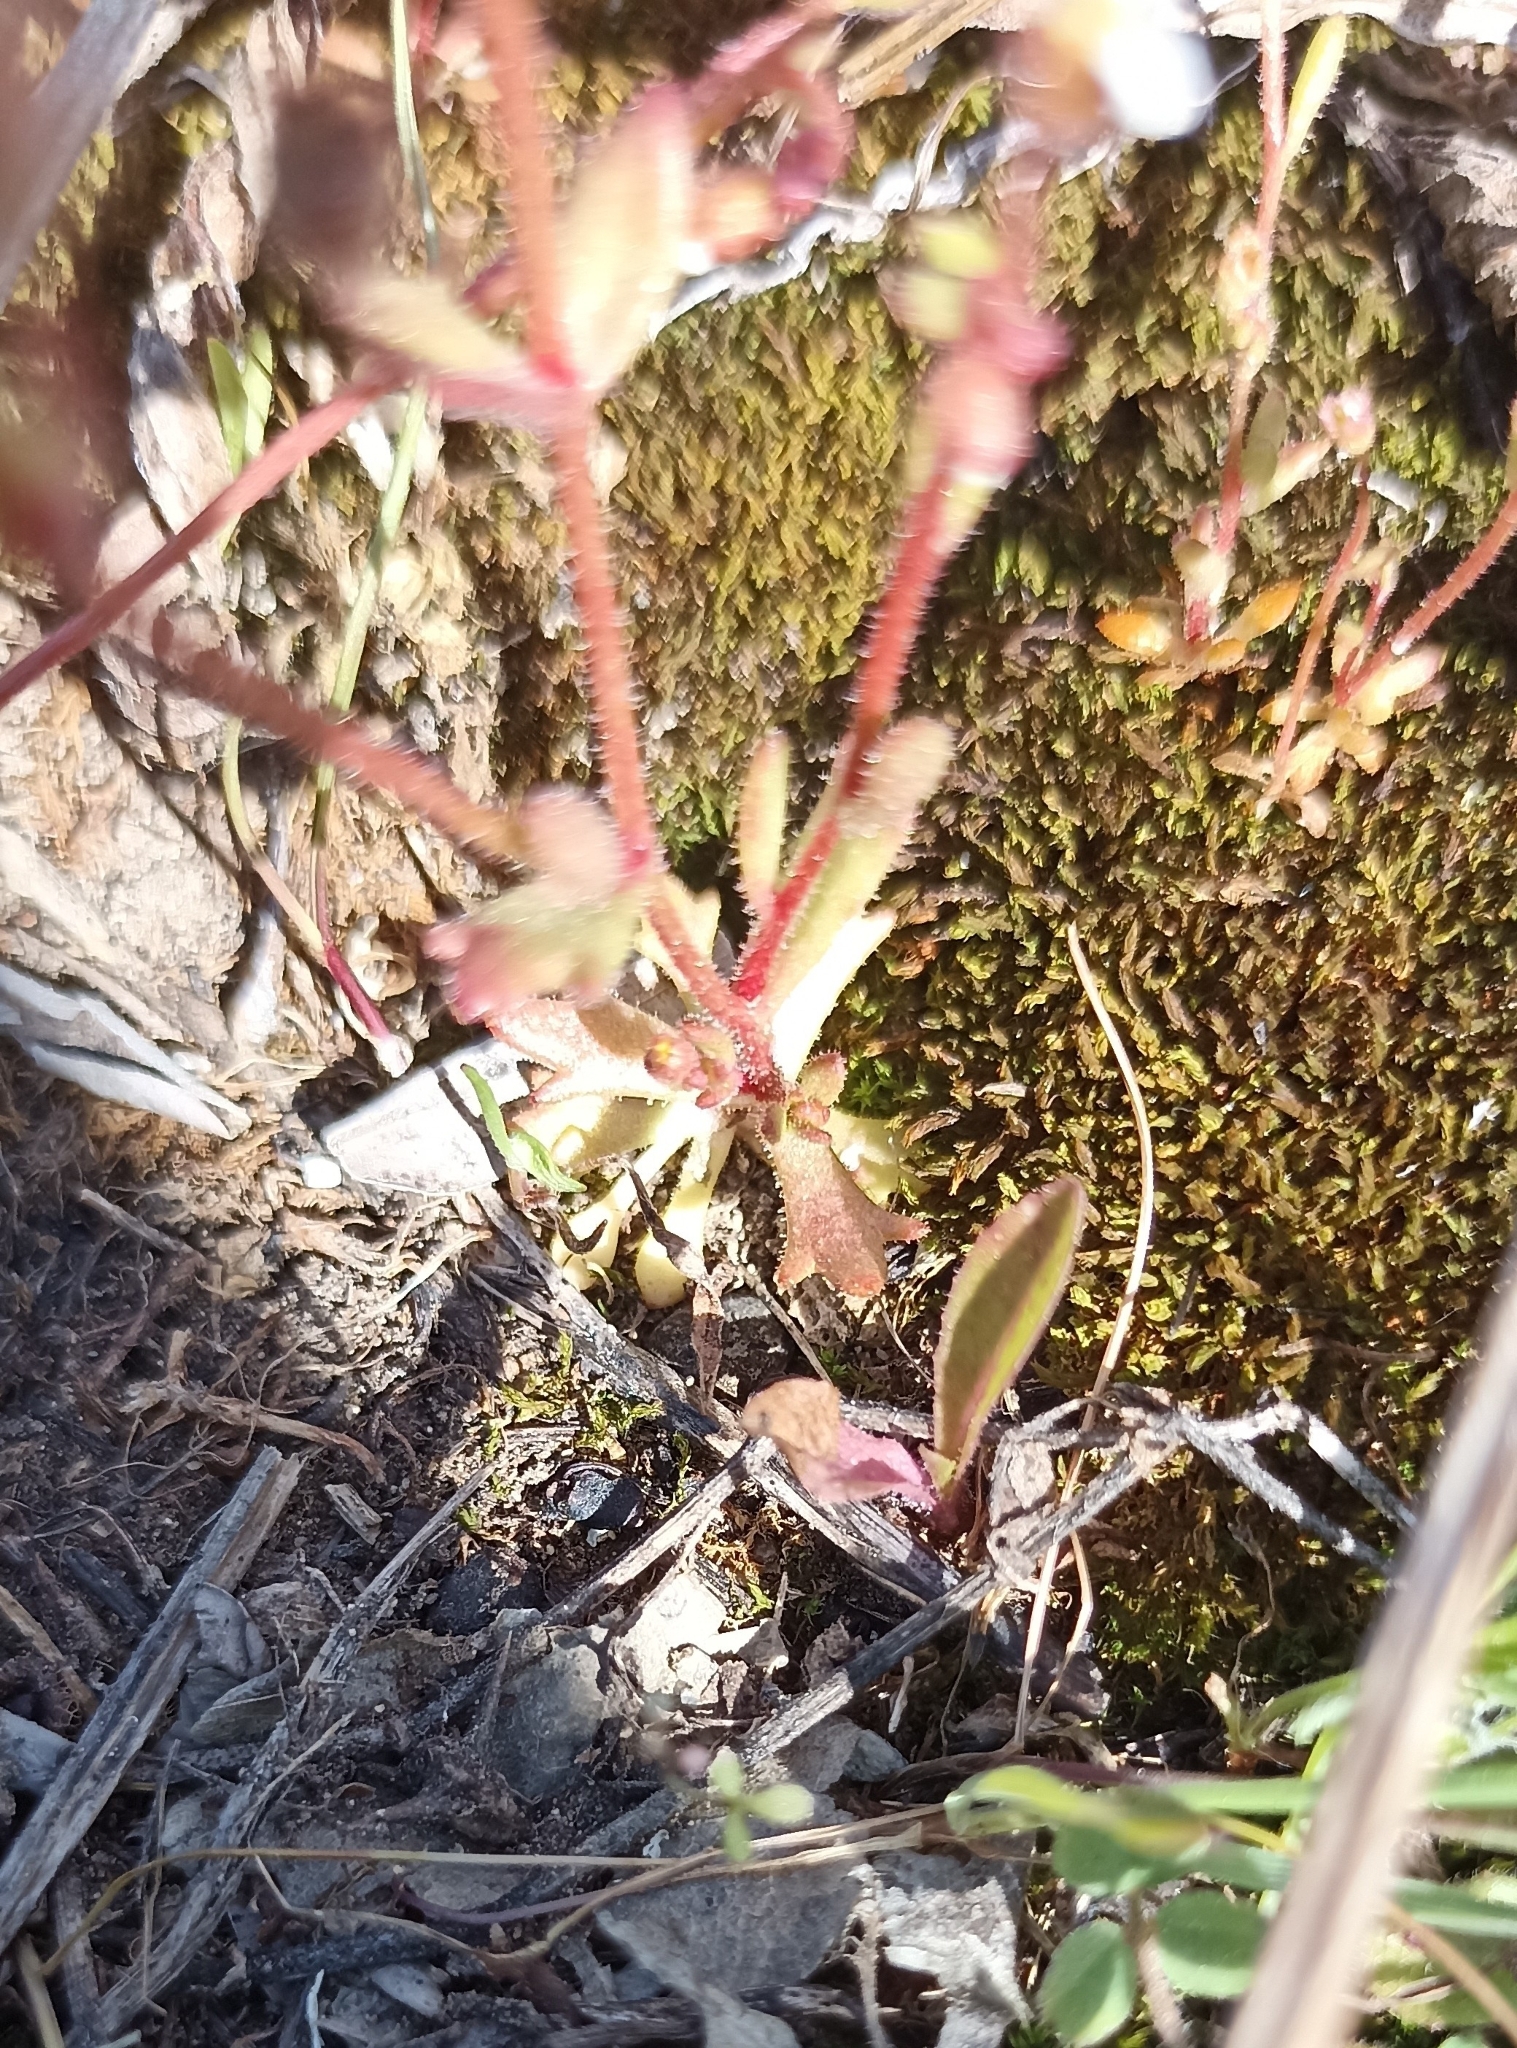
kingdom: Plantae
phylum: Tracheophyta
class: Magnoliopsida
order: Saxifragales
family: Saxifragaceae
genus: Saxifraga
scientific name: Saxifraga tridactylites
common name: Rue-leaved saxifrage
